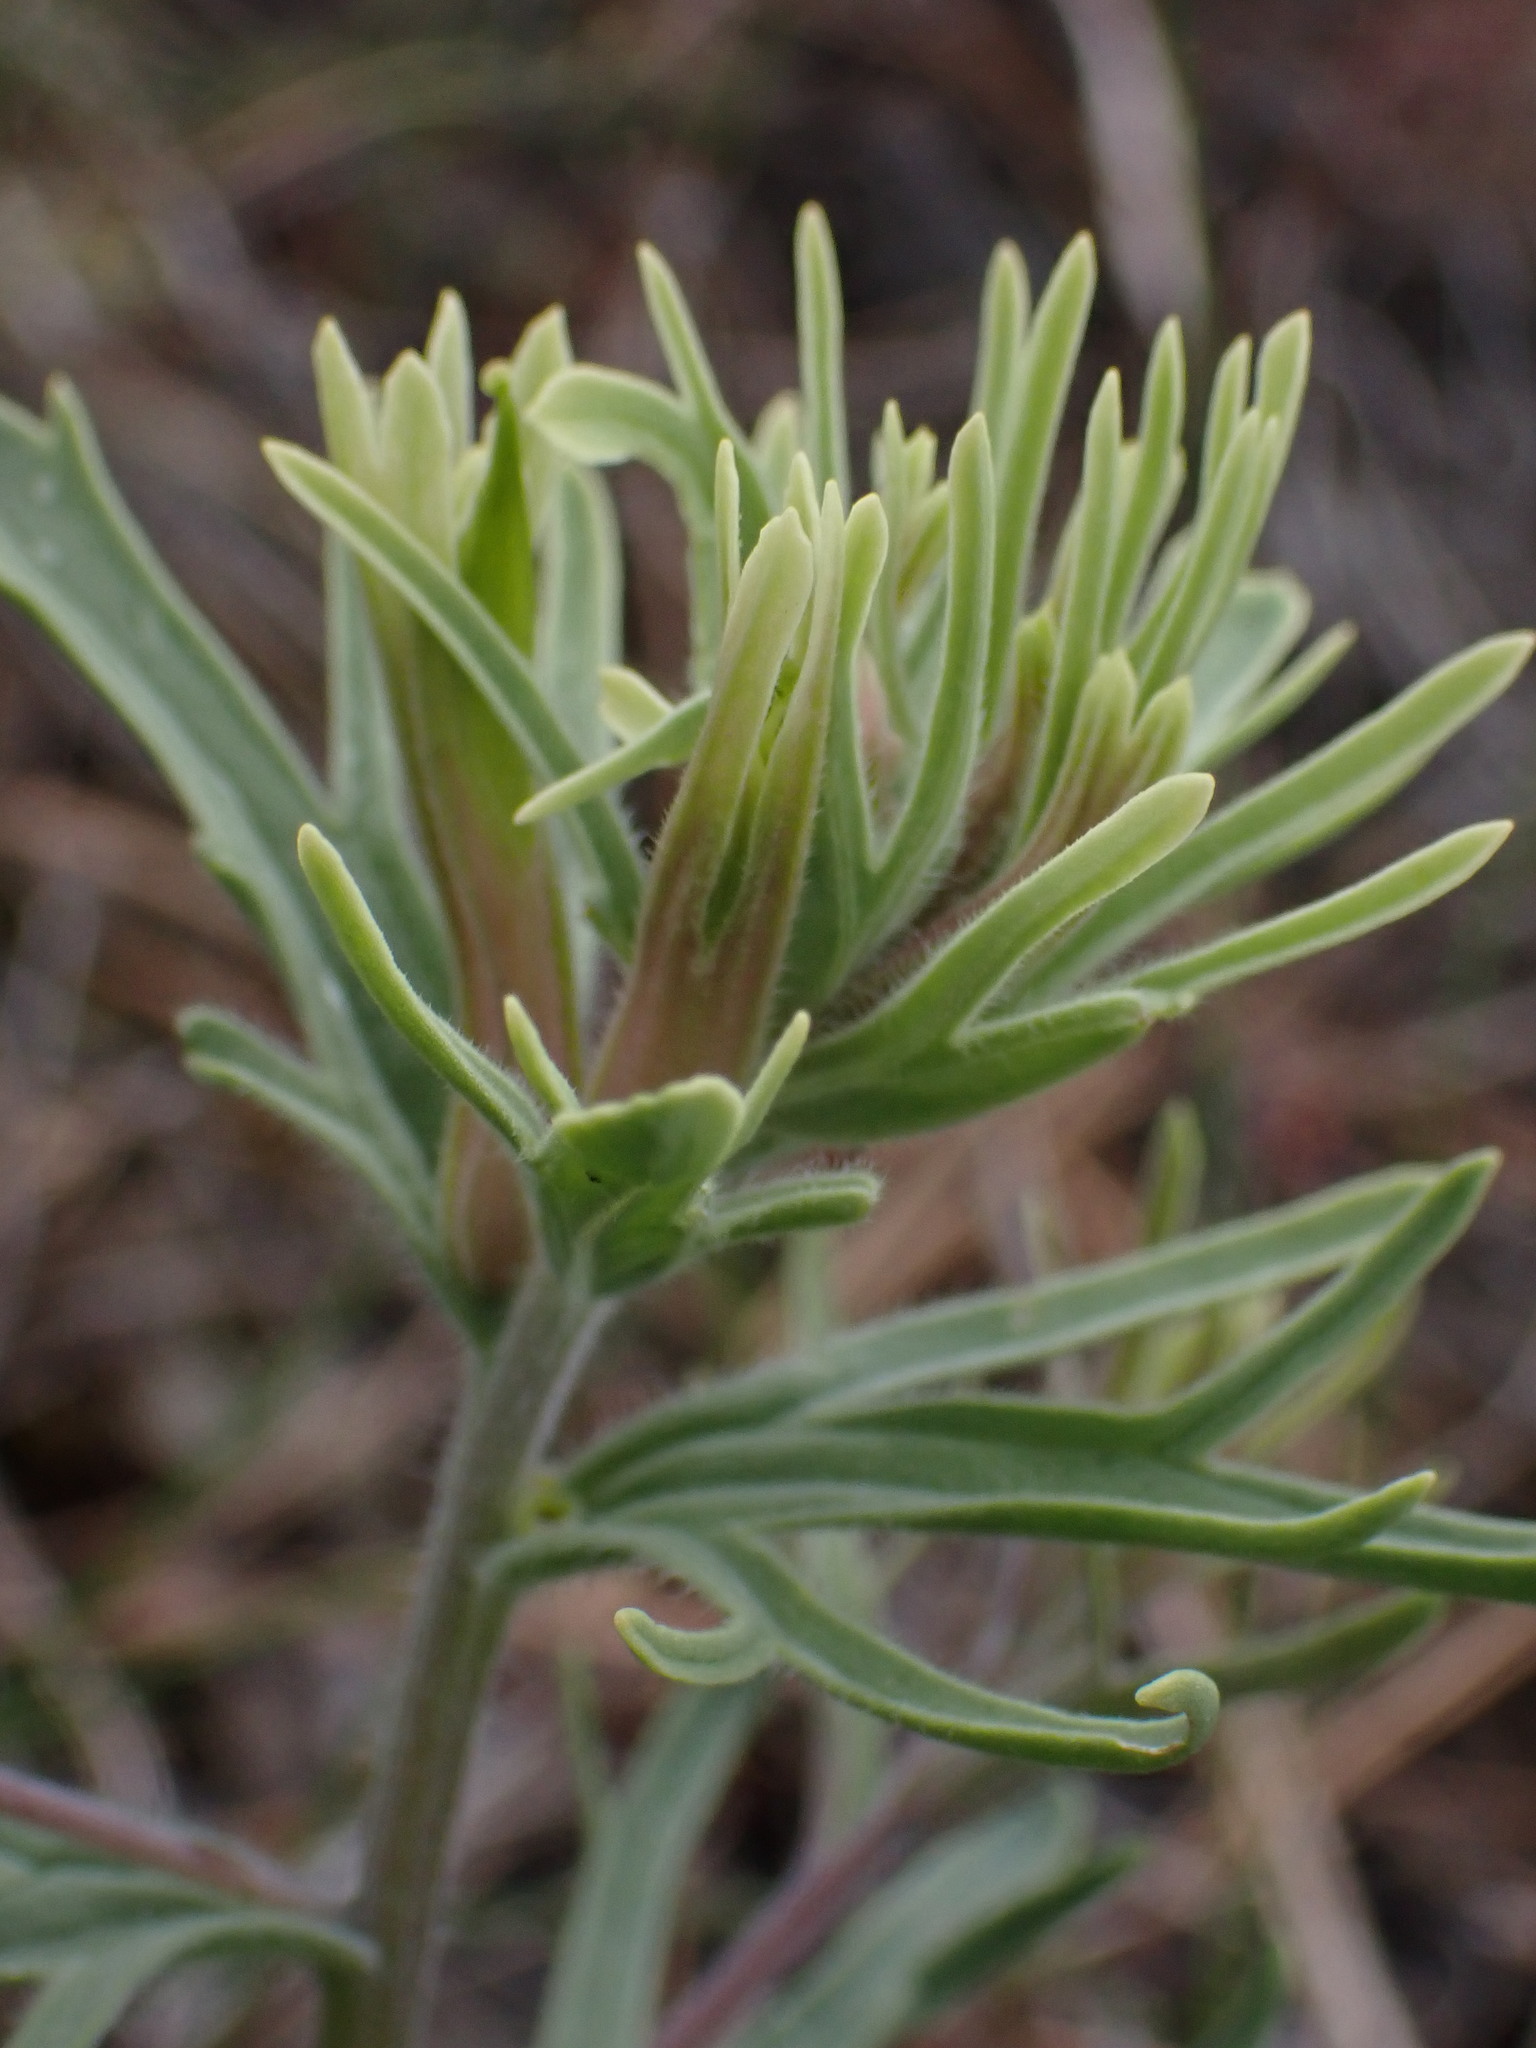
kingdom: Plantae
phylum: Tracheophyta
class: Magnoliopsida
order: Lamiales
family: Orobanchaceae
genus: Castilleja
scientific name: Castilleja thompsonii
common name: Thompson's paintbrush
